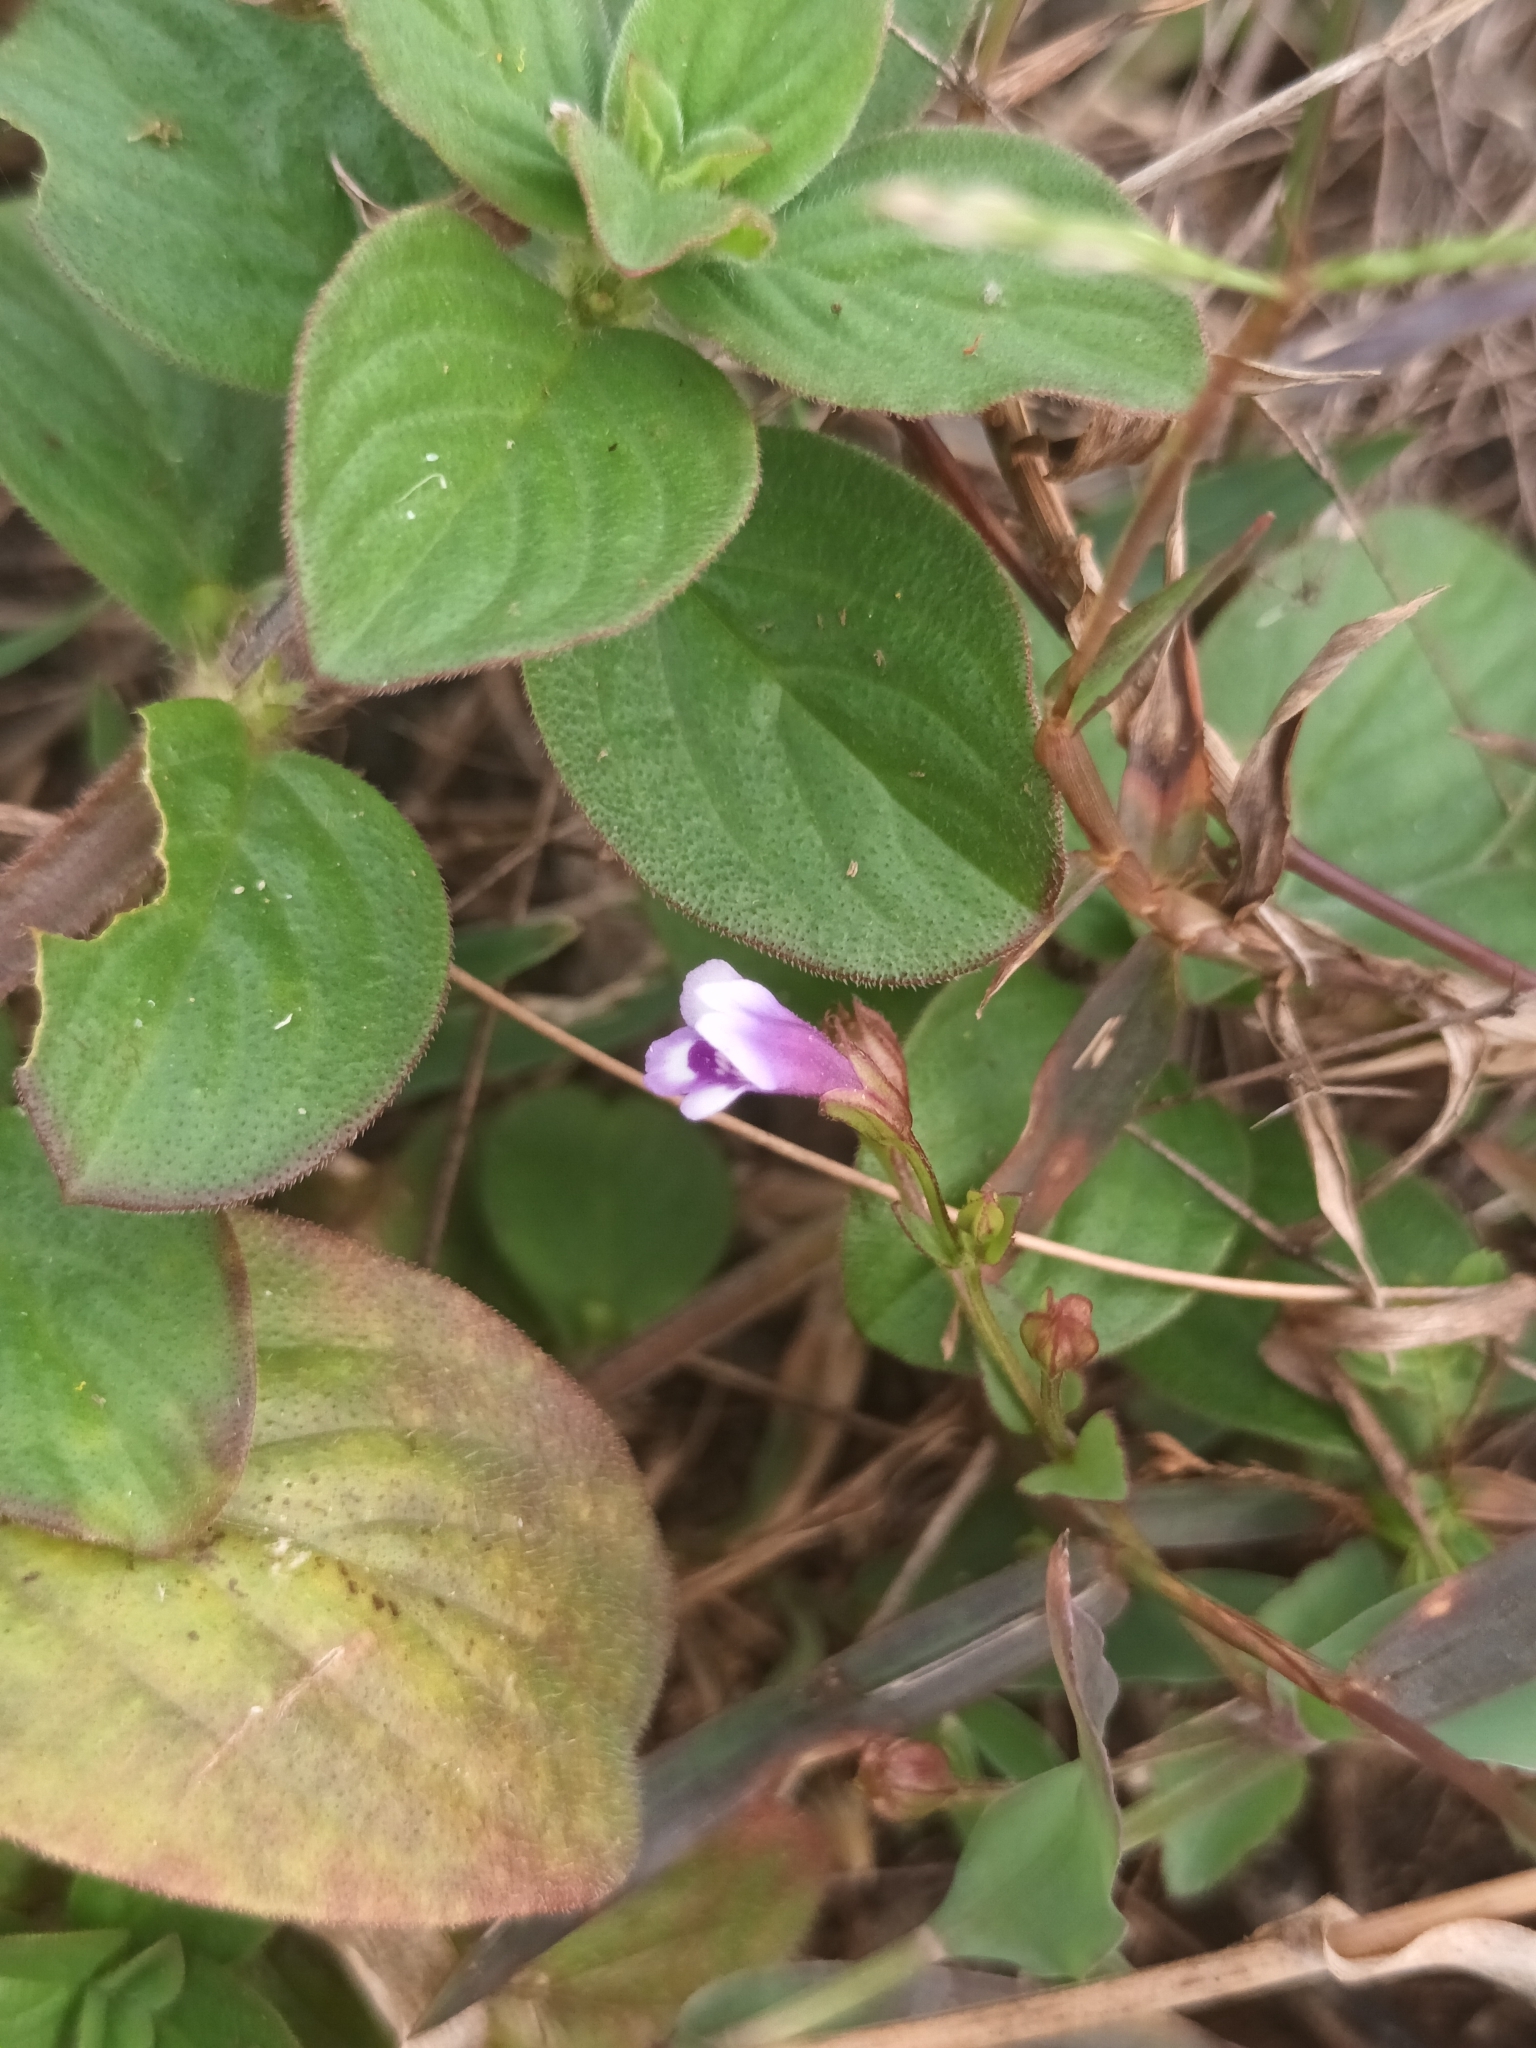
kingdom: Plantae
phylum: Tracheophyta
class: Magnoliopsida
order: Lamiales
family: Linderniaceae
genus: Torenia
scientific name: Torenia crustacea
